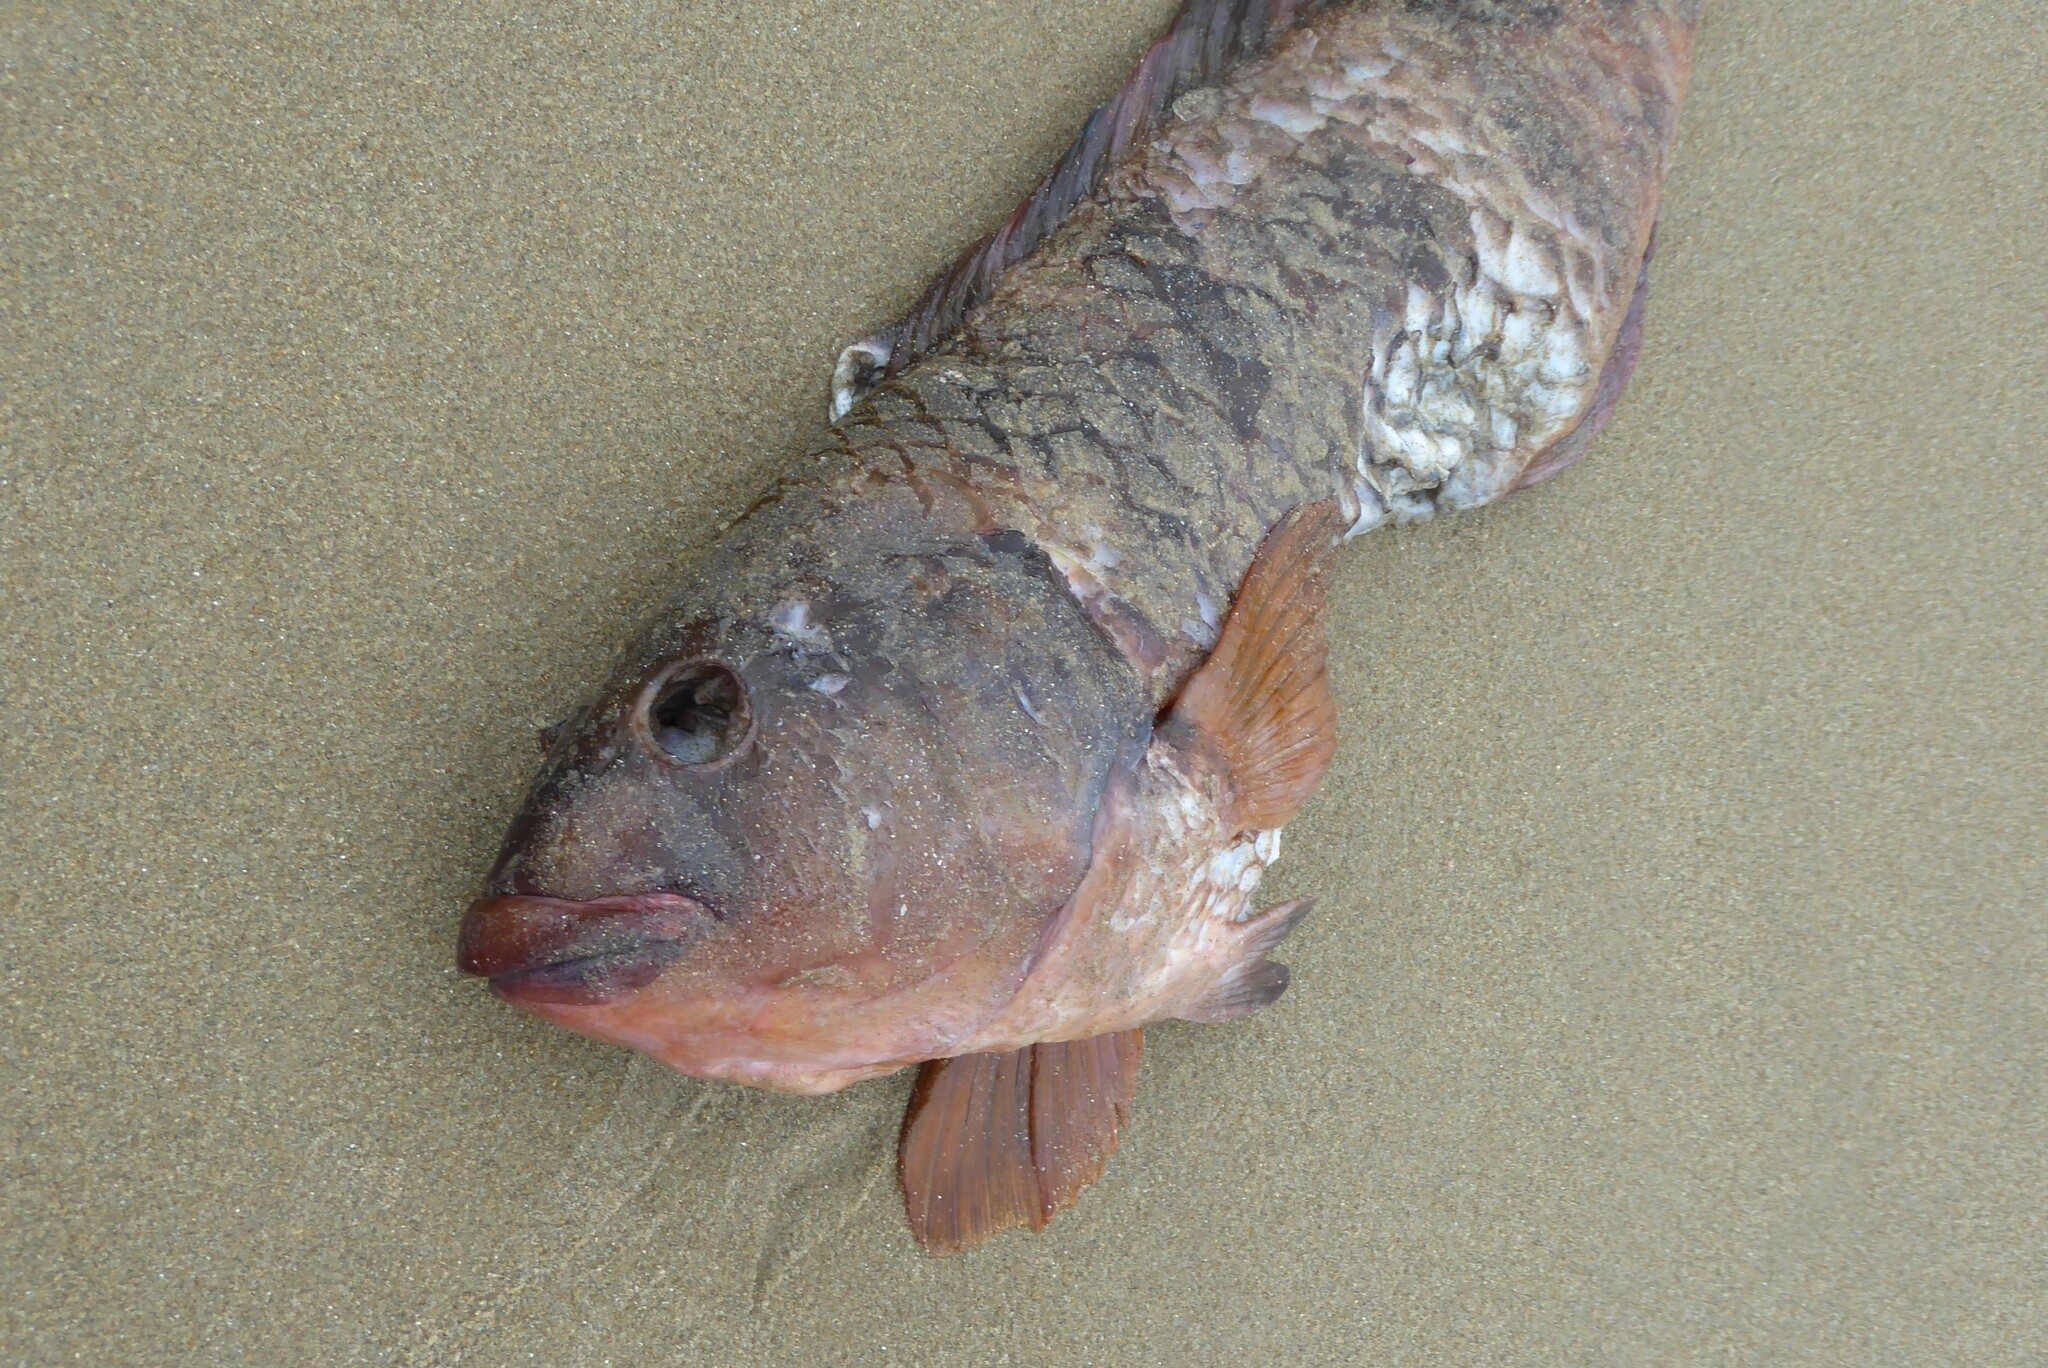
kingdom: Animalia
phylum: Chordata
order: Perciformes
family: Labridae
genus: Notolabrus
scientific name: Notolabrus fucicola
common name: Banded parrotfish
